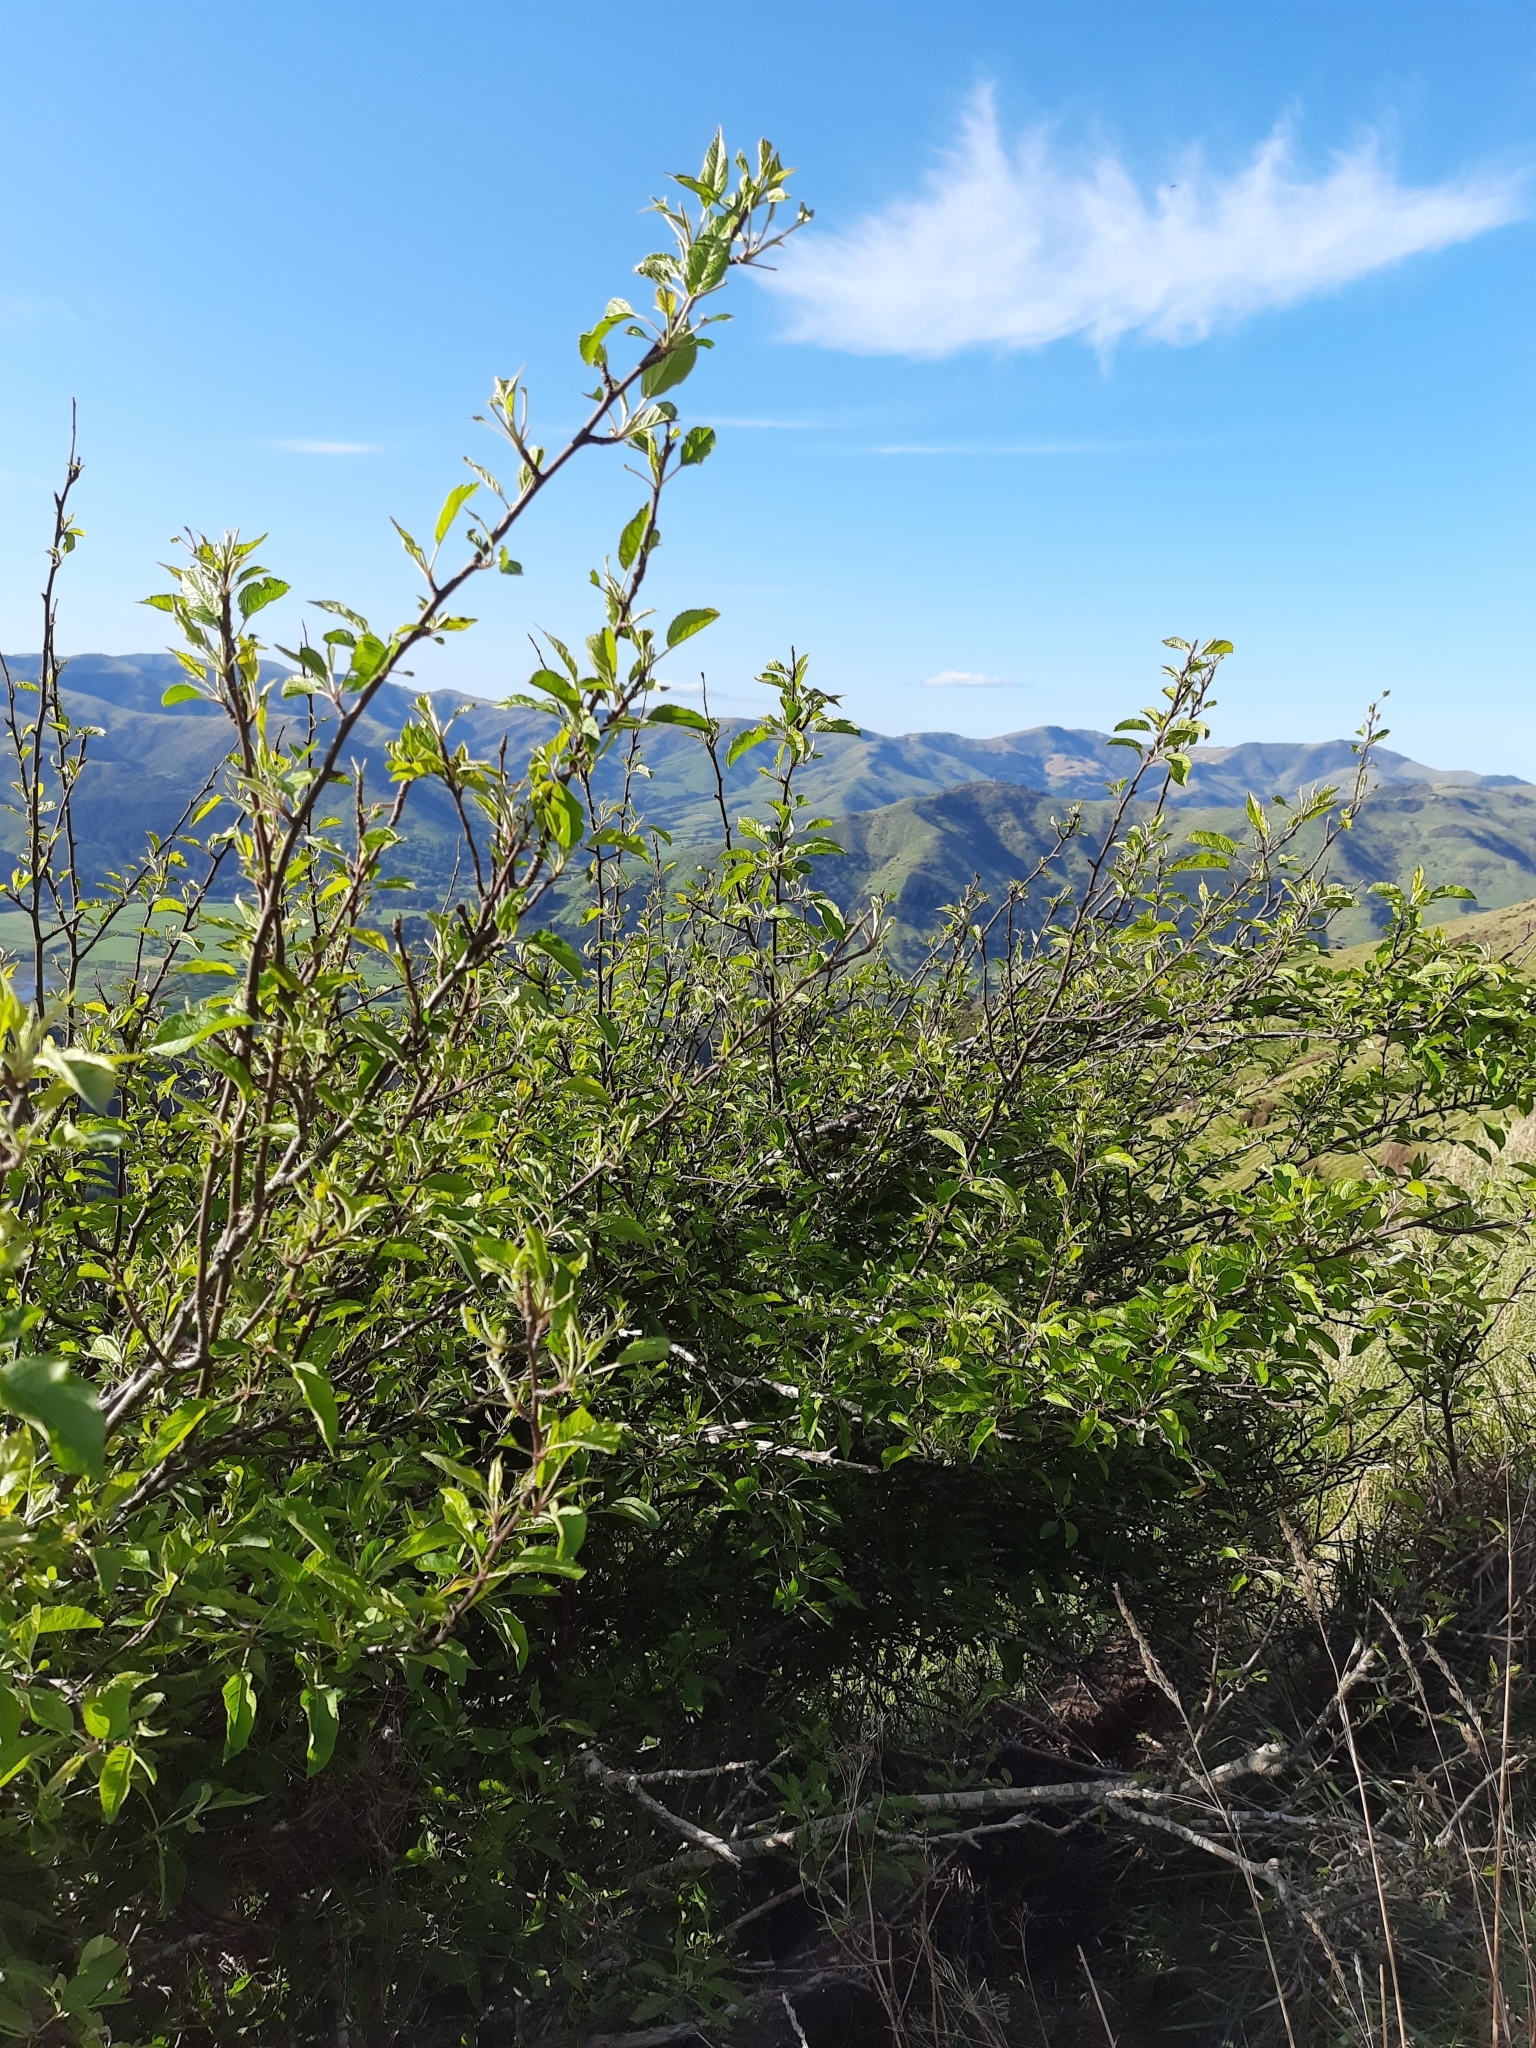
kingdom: Plantae
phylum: Tracheophyta
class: Magnoliopsida
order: Rosales
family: Rosaceae
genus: Malus
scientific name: Malus domestica
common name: Apple
